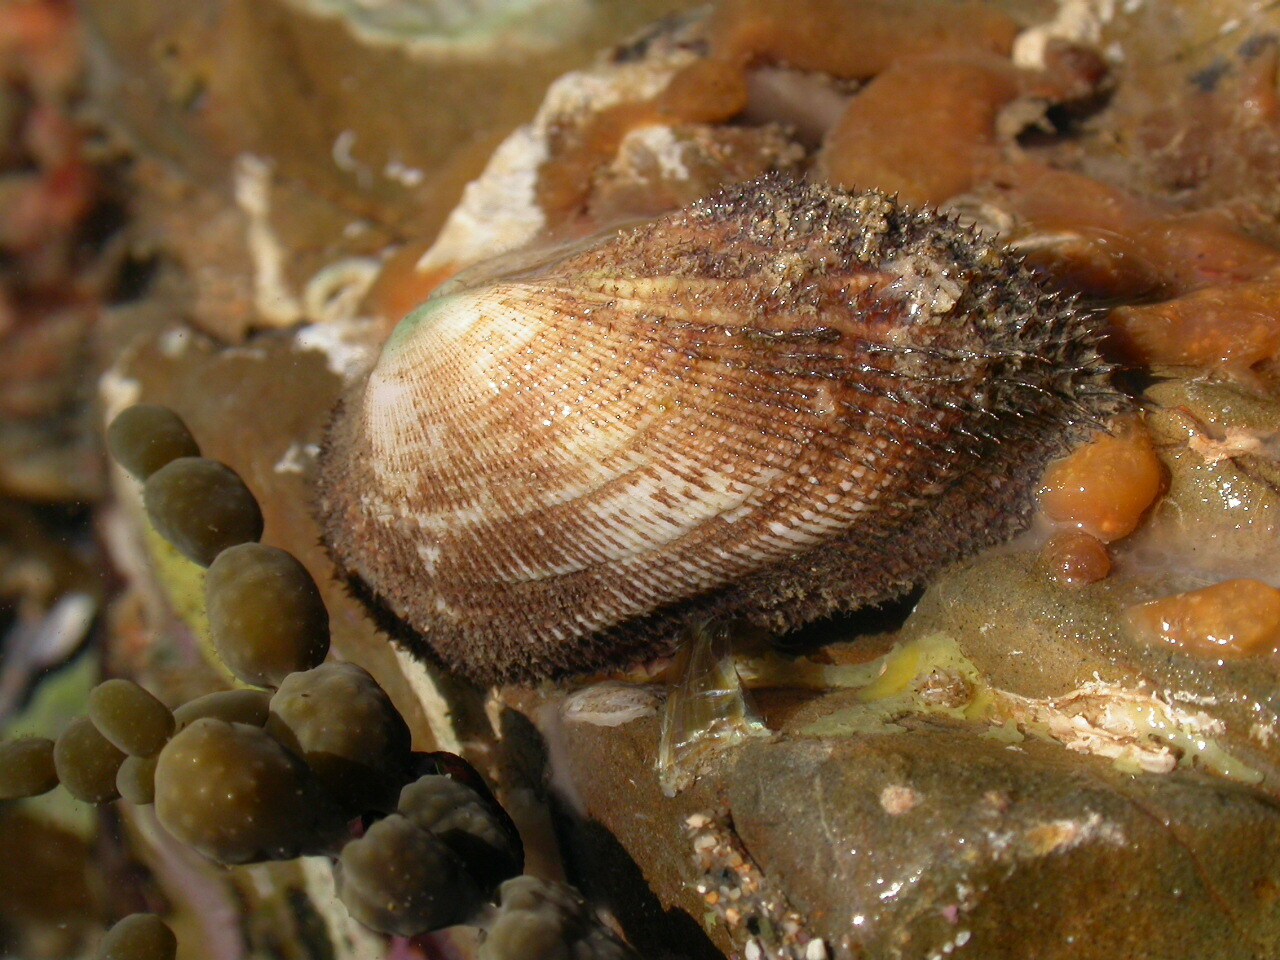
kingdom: Animalia
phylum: Mollusca
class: Bivalvia
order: Arcida
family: Arcidae
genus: Barbatia
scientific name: Barbatia parvivillosa
